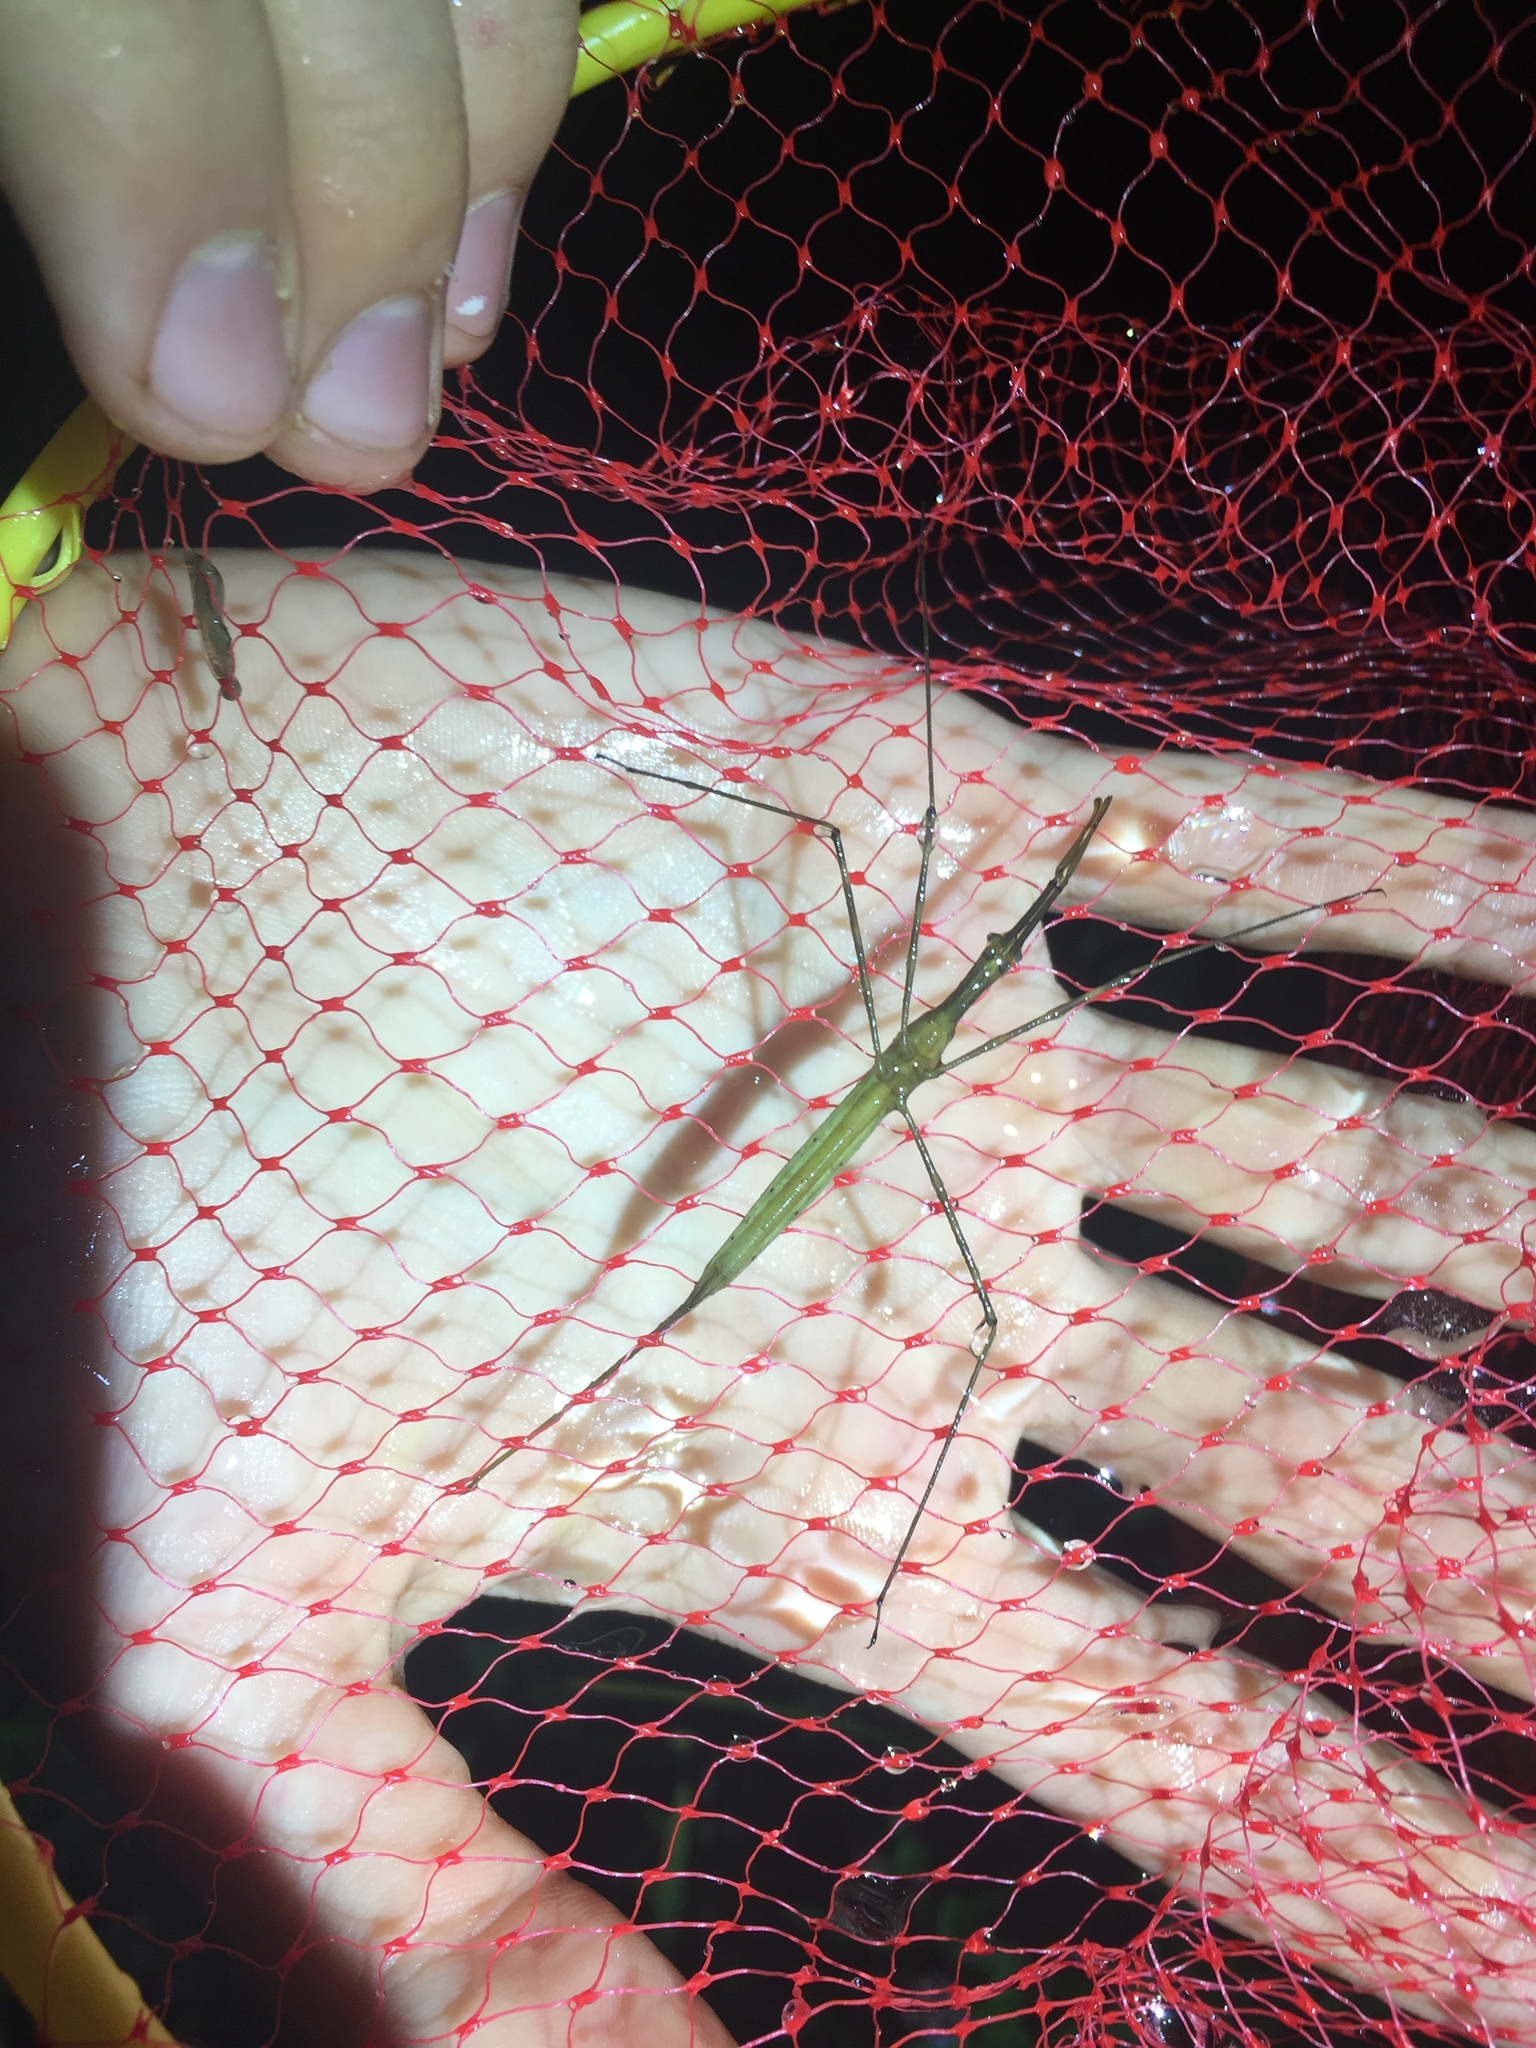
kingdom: Animalia
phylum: Arthropoda
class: Insecta
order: Hemiptera
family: Nepidae
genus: Ranatra
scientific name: Ranatra
